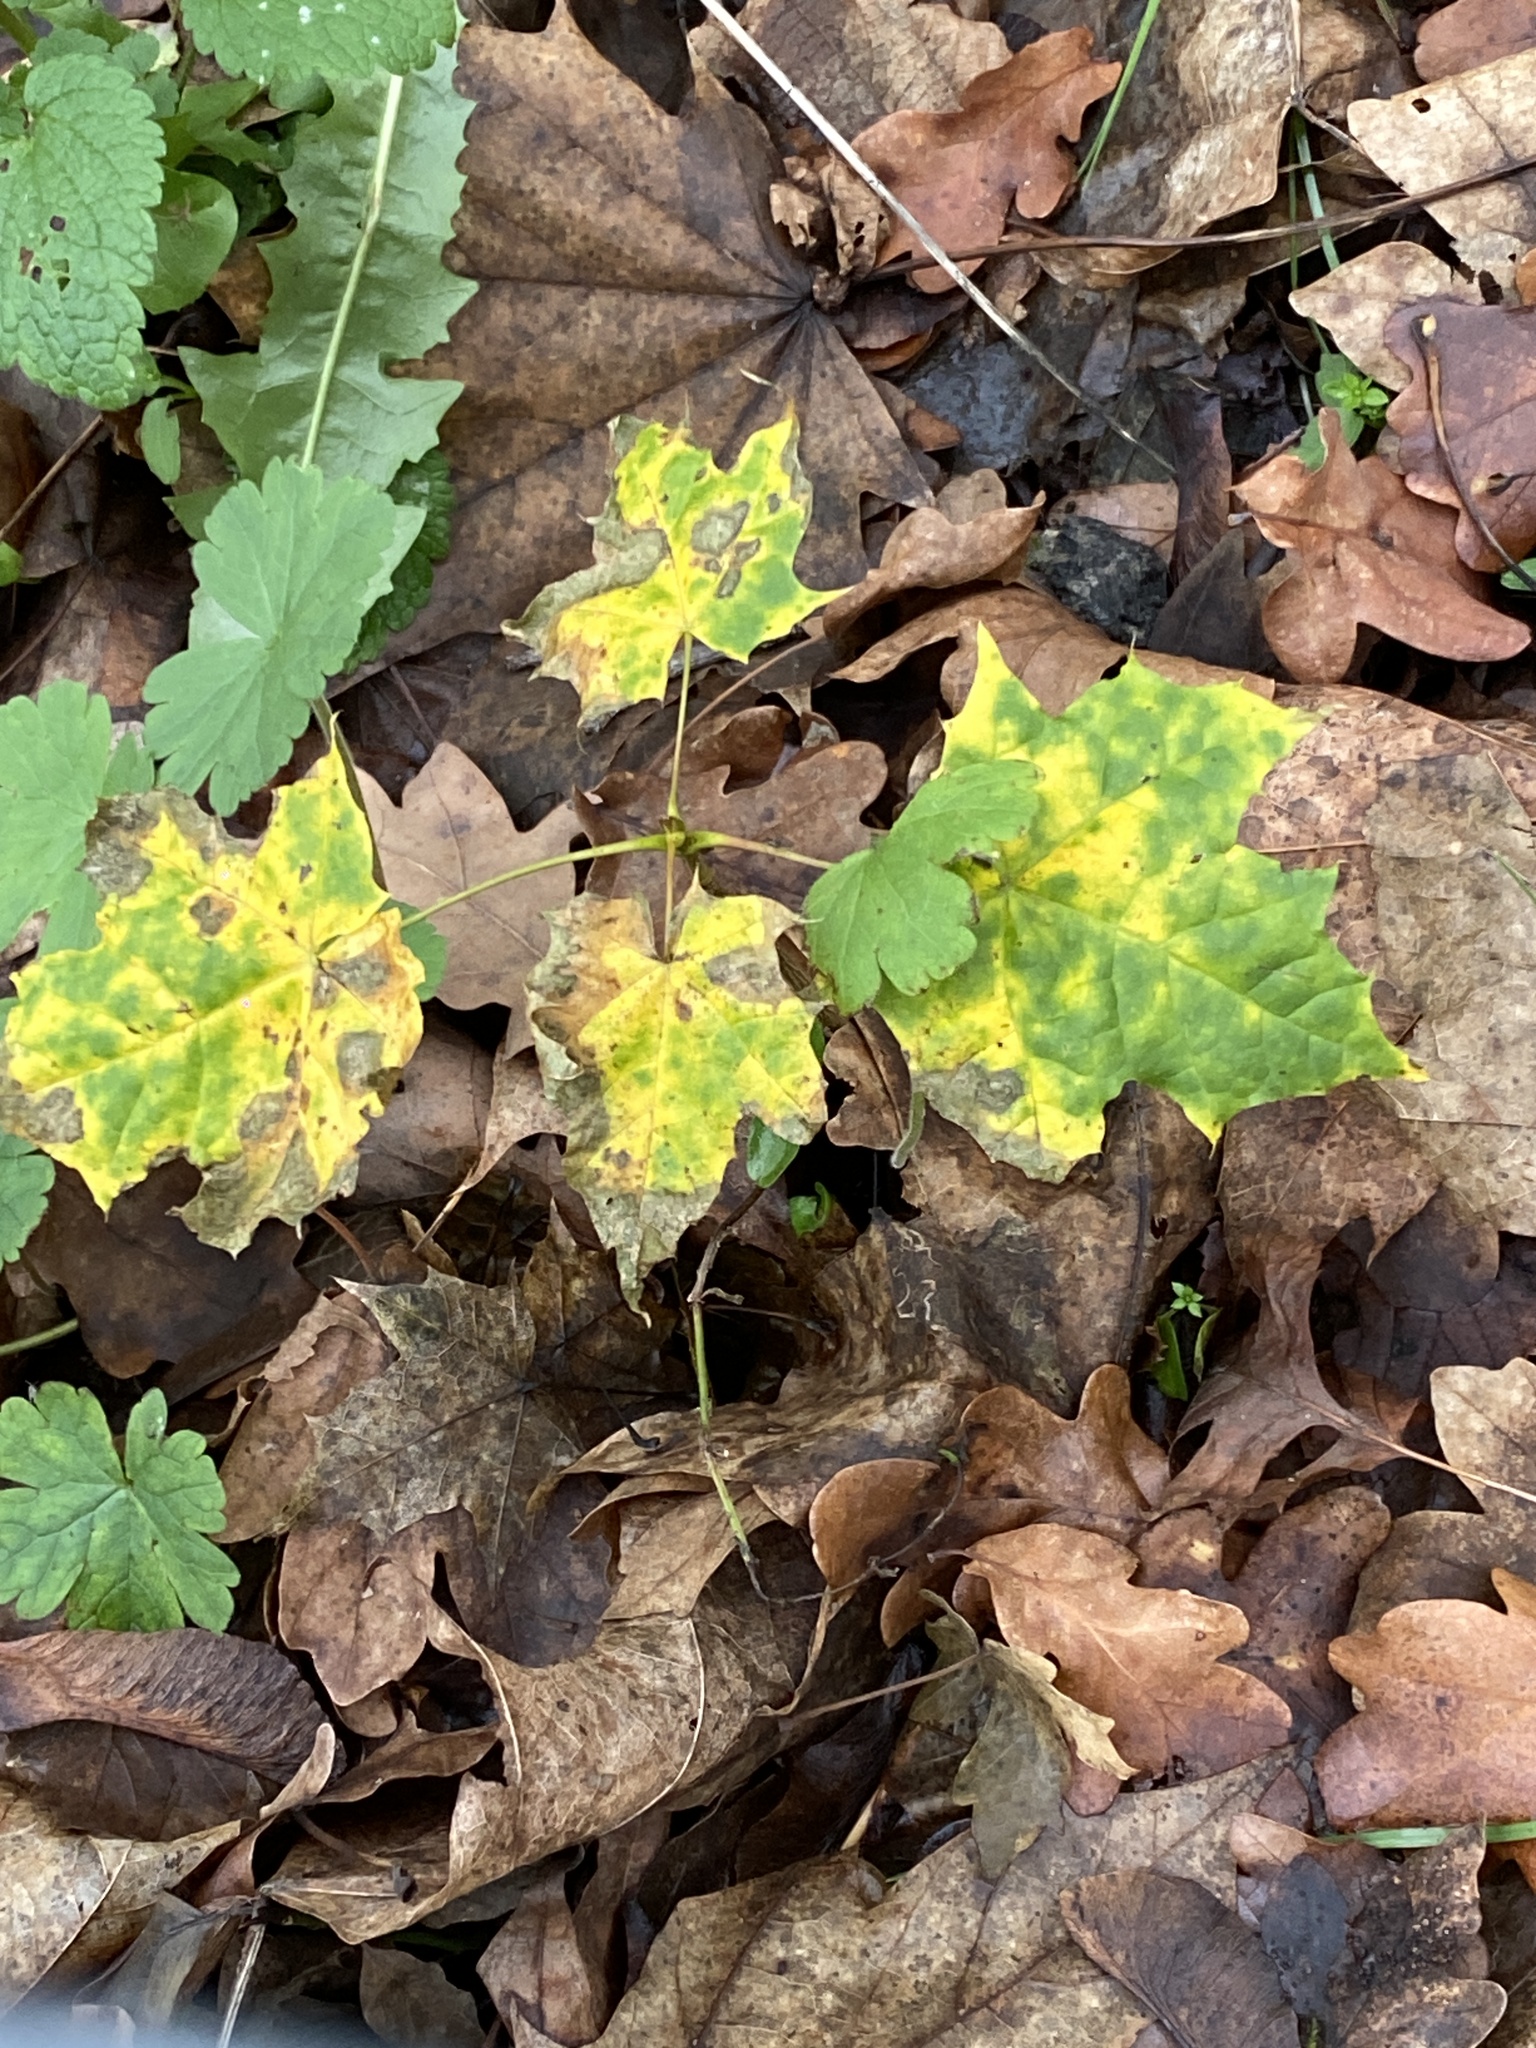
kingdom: Plantae
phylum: Tracheophyta
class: Magnoliopsida
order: Sapindales
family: Sapindaceae
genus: Acer
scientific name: Acer platanoides
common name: Norway maple
